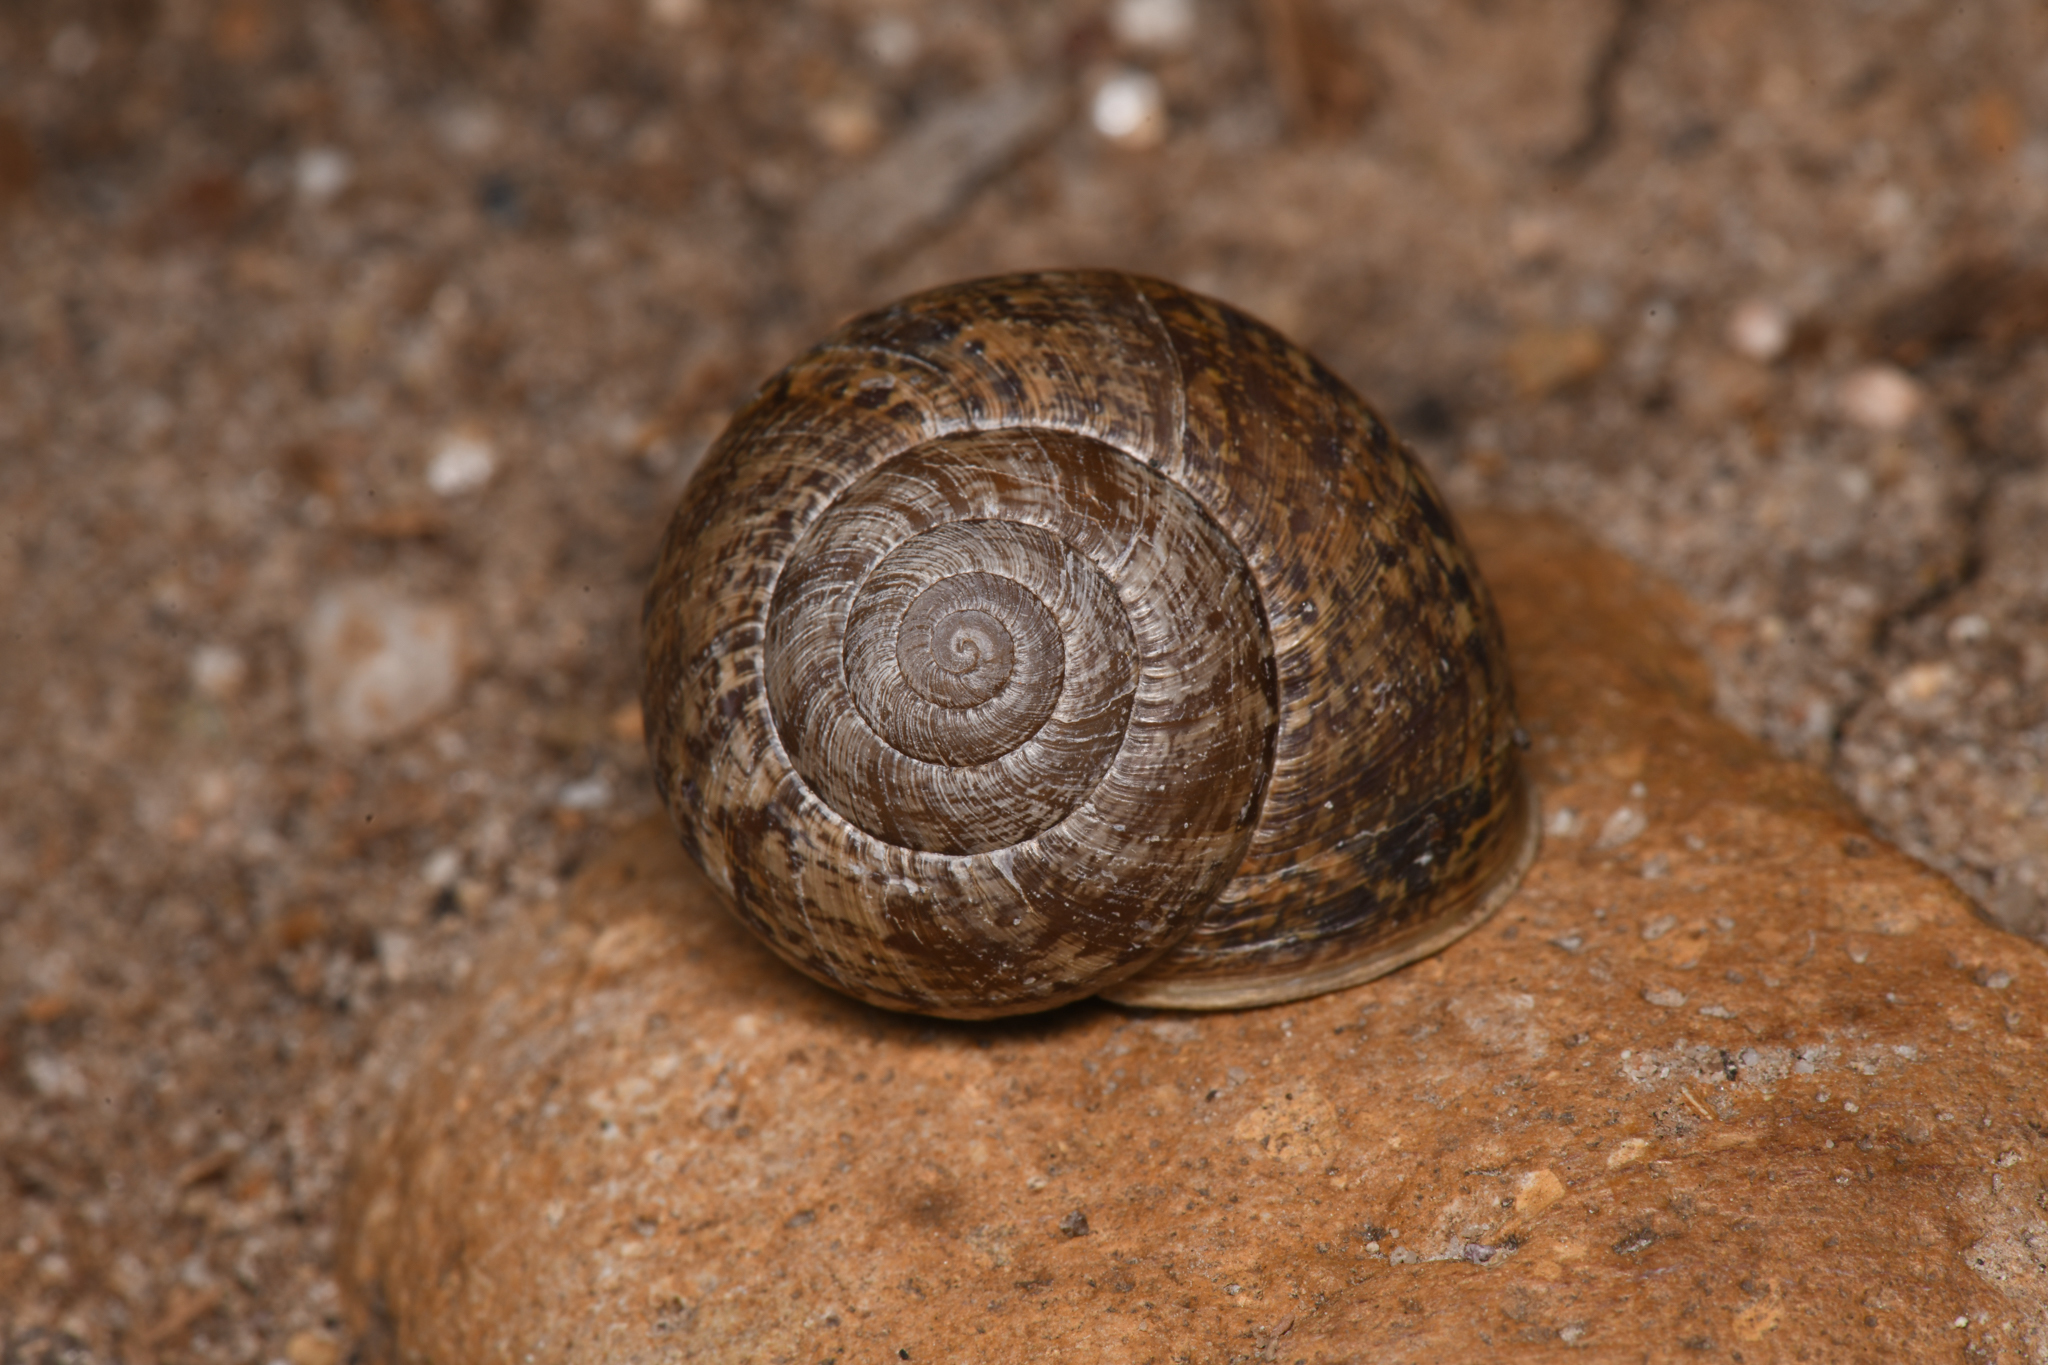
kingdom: Animalia
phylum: Mollusca
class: Gastropoda
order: Stylommatophora
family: Xanthonychidae
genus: Xerarionta
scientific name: Xerarionta stearnsiana
